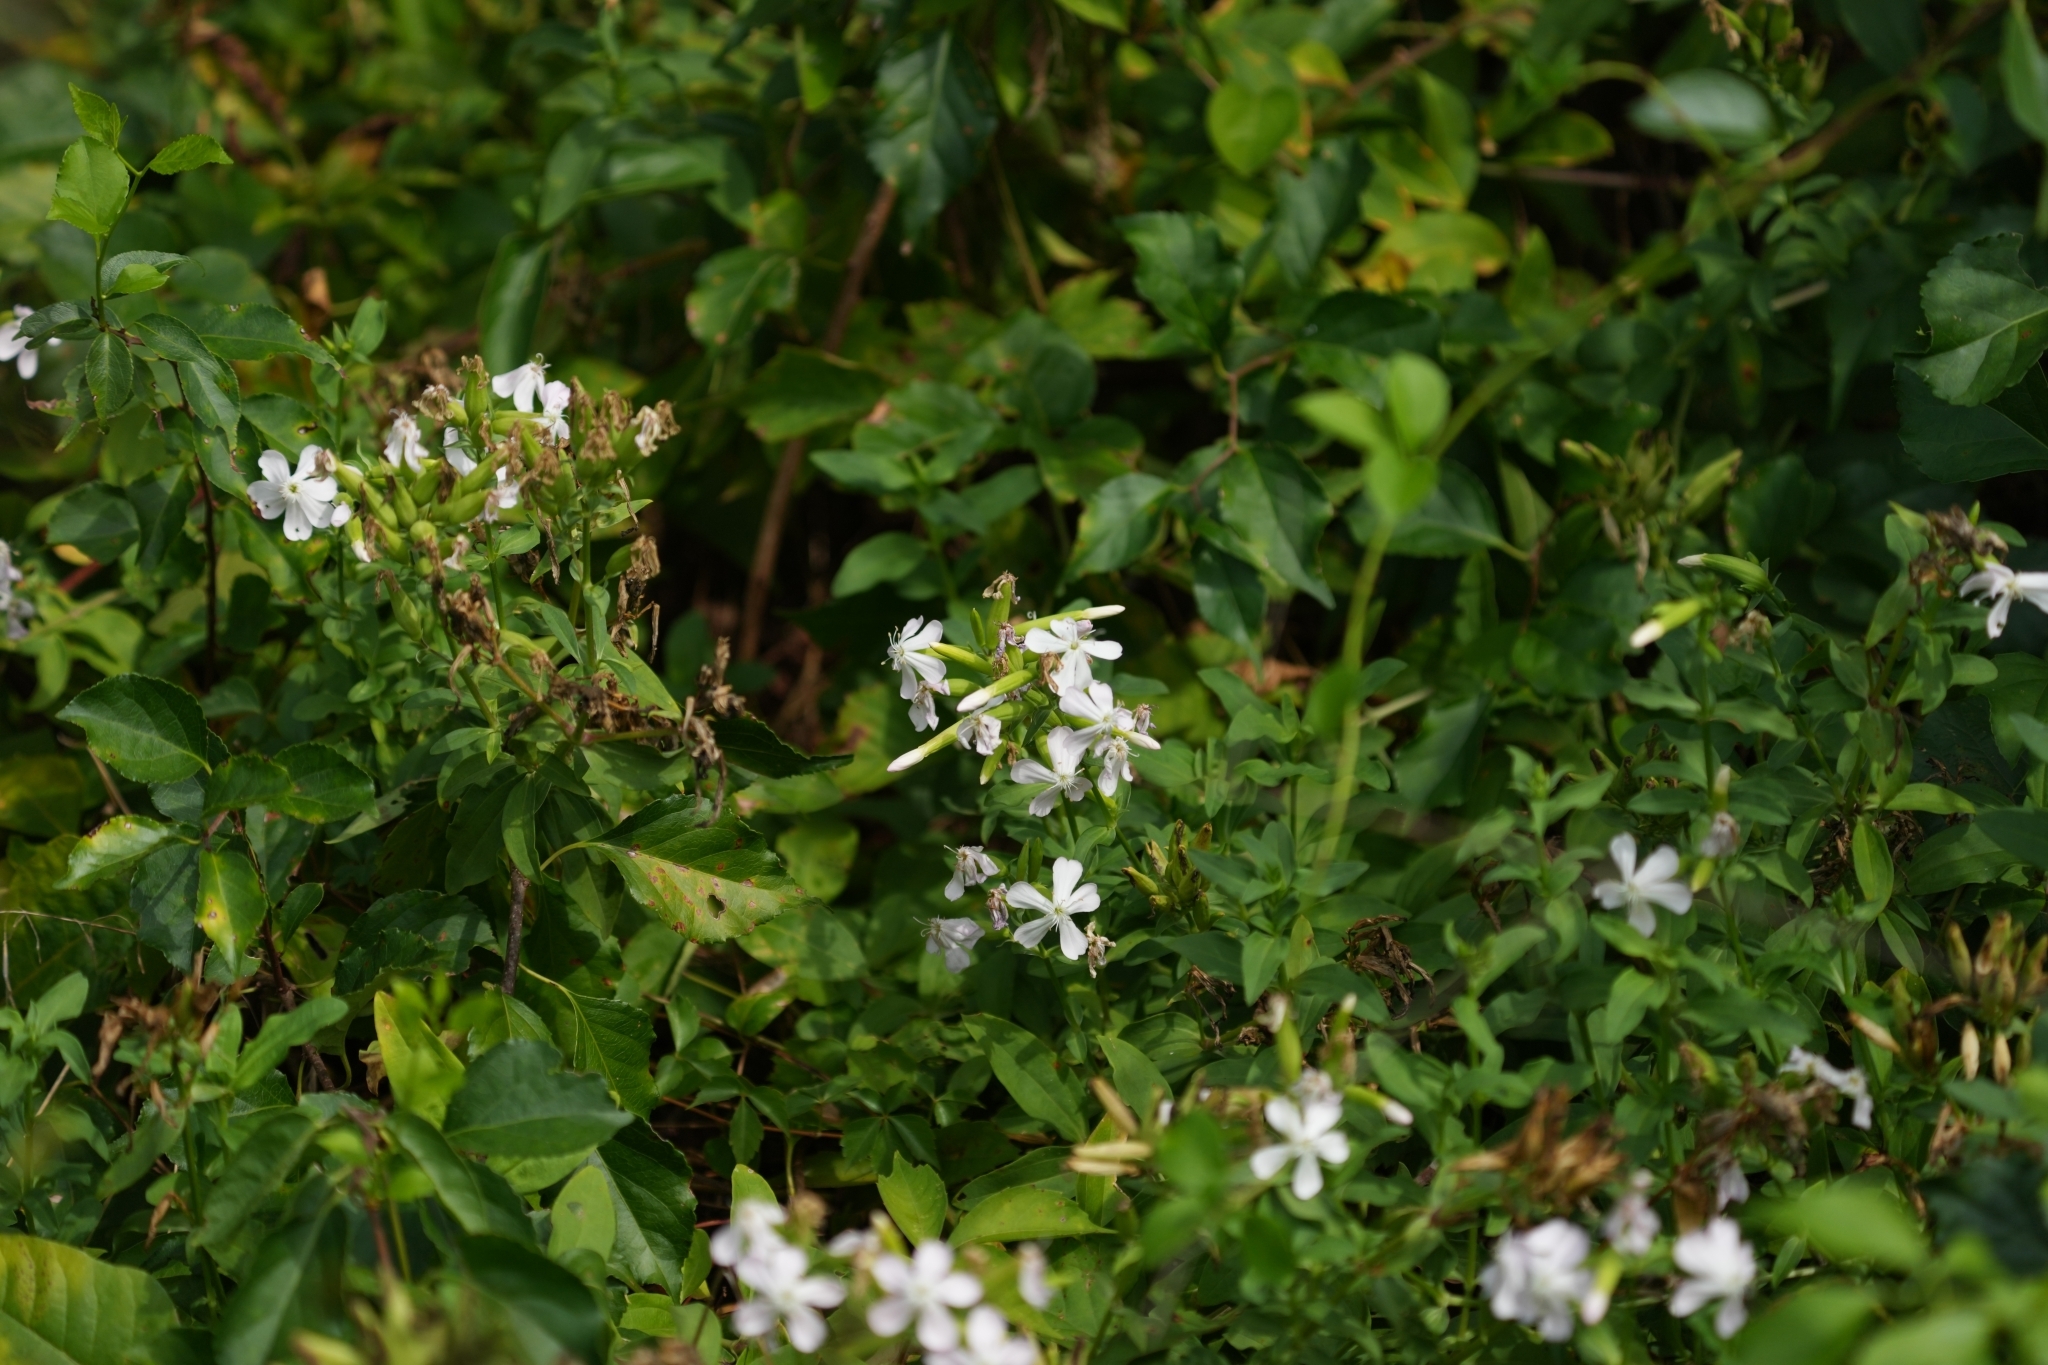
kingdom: Plantae
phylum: Tracheophyta
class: Magnoliopsida
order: Caryophyllales
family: Caryophyllaceae
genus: Saponaria
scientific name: Saponaria officinalis
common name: Soapwort
